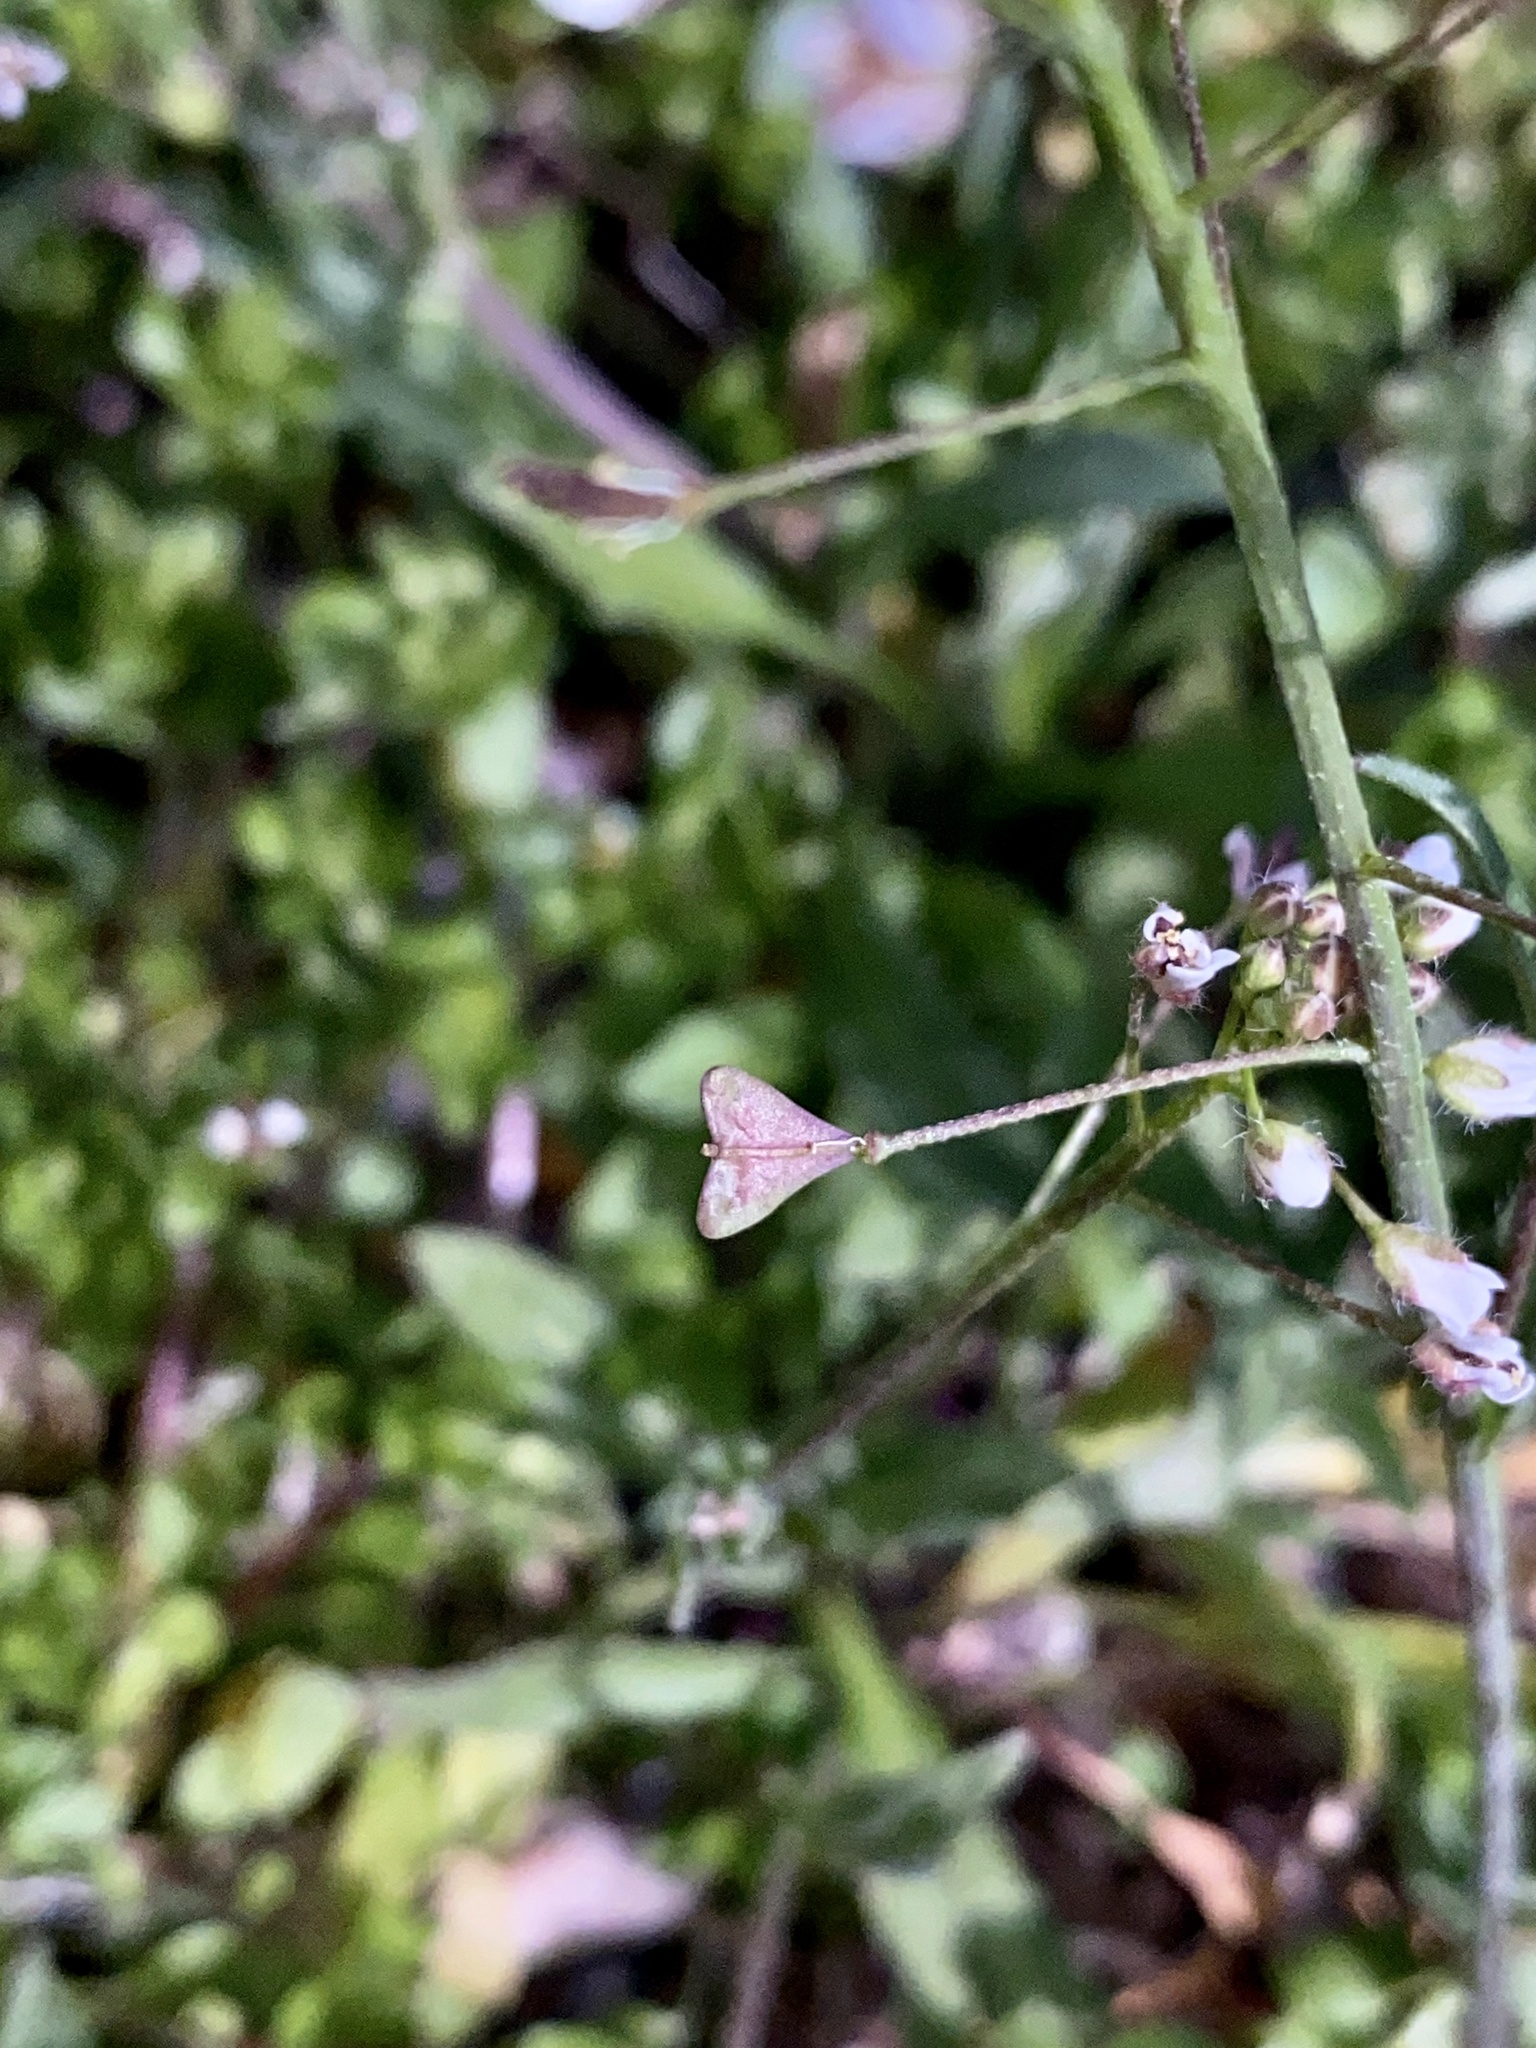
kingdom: Plantae
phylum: Tracheophyta
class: Magnoliopsida
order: Brassicales
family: Brassicaceae
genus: Capsella
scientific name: Capsella bursa-pastoris
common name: Shepherd's purse
